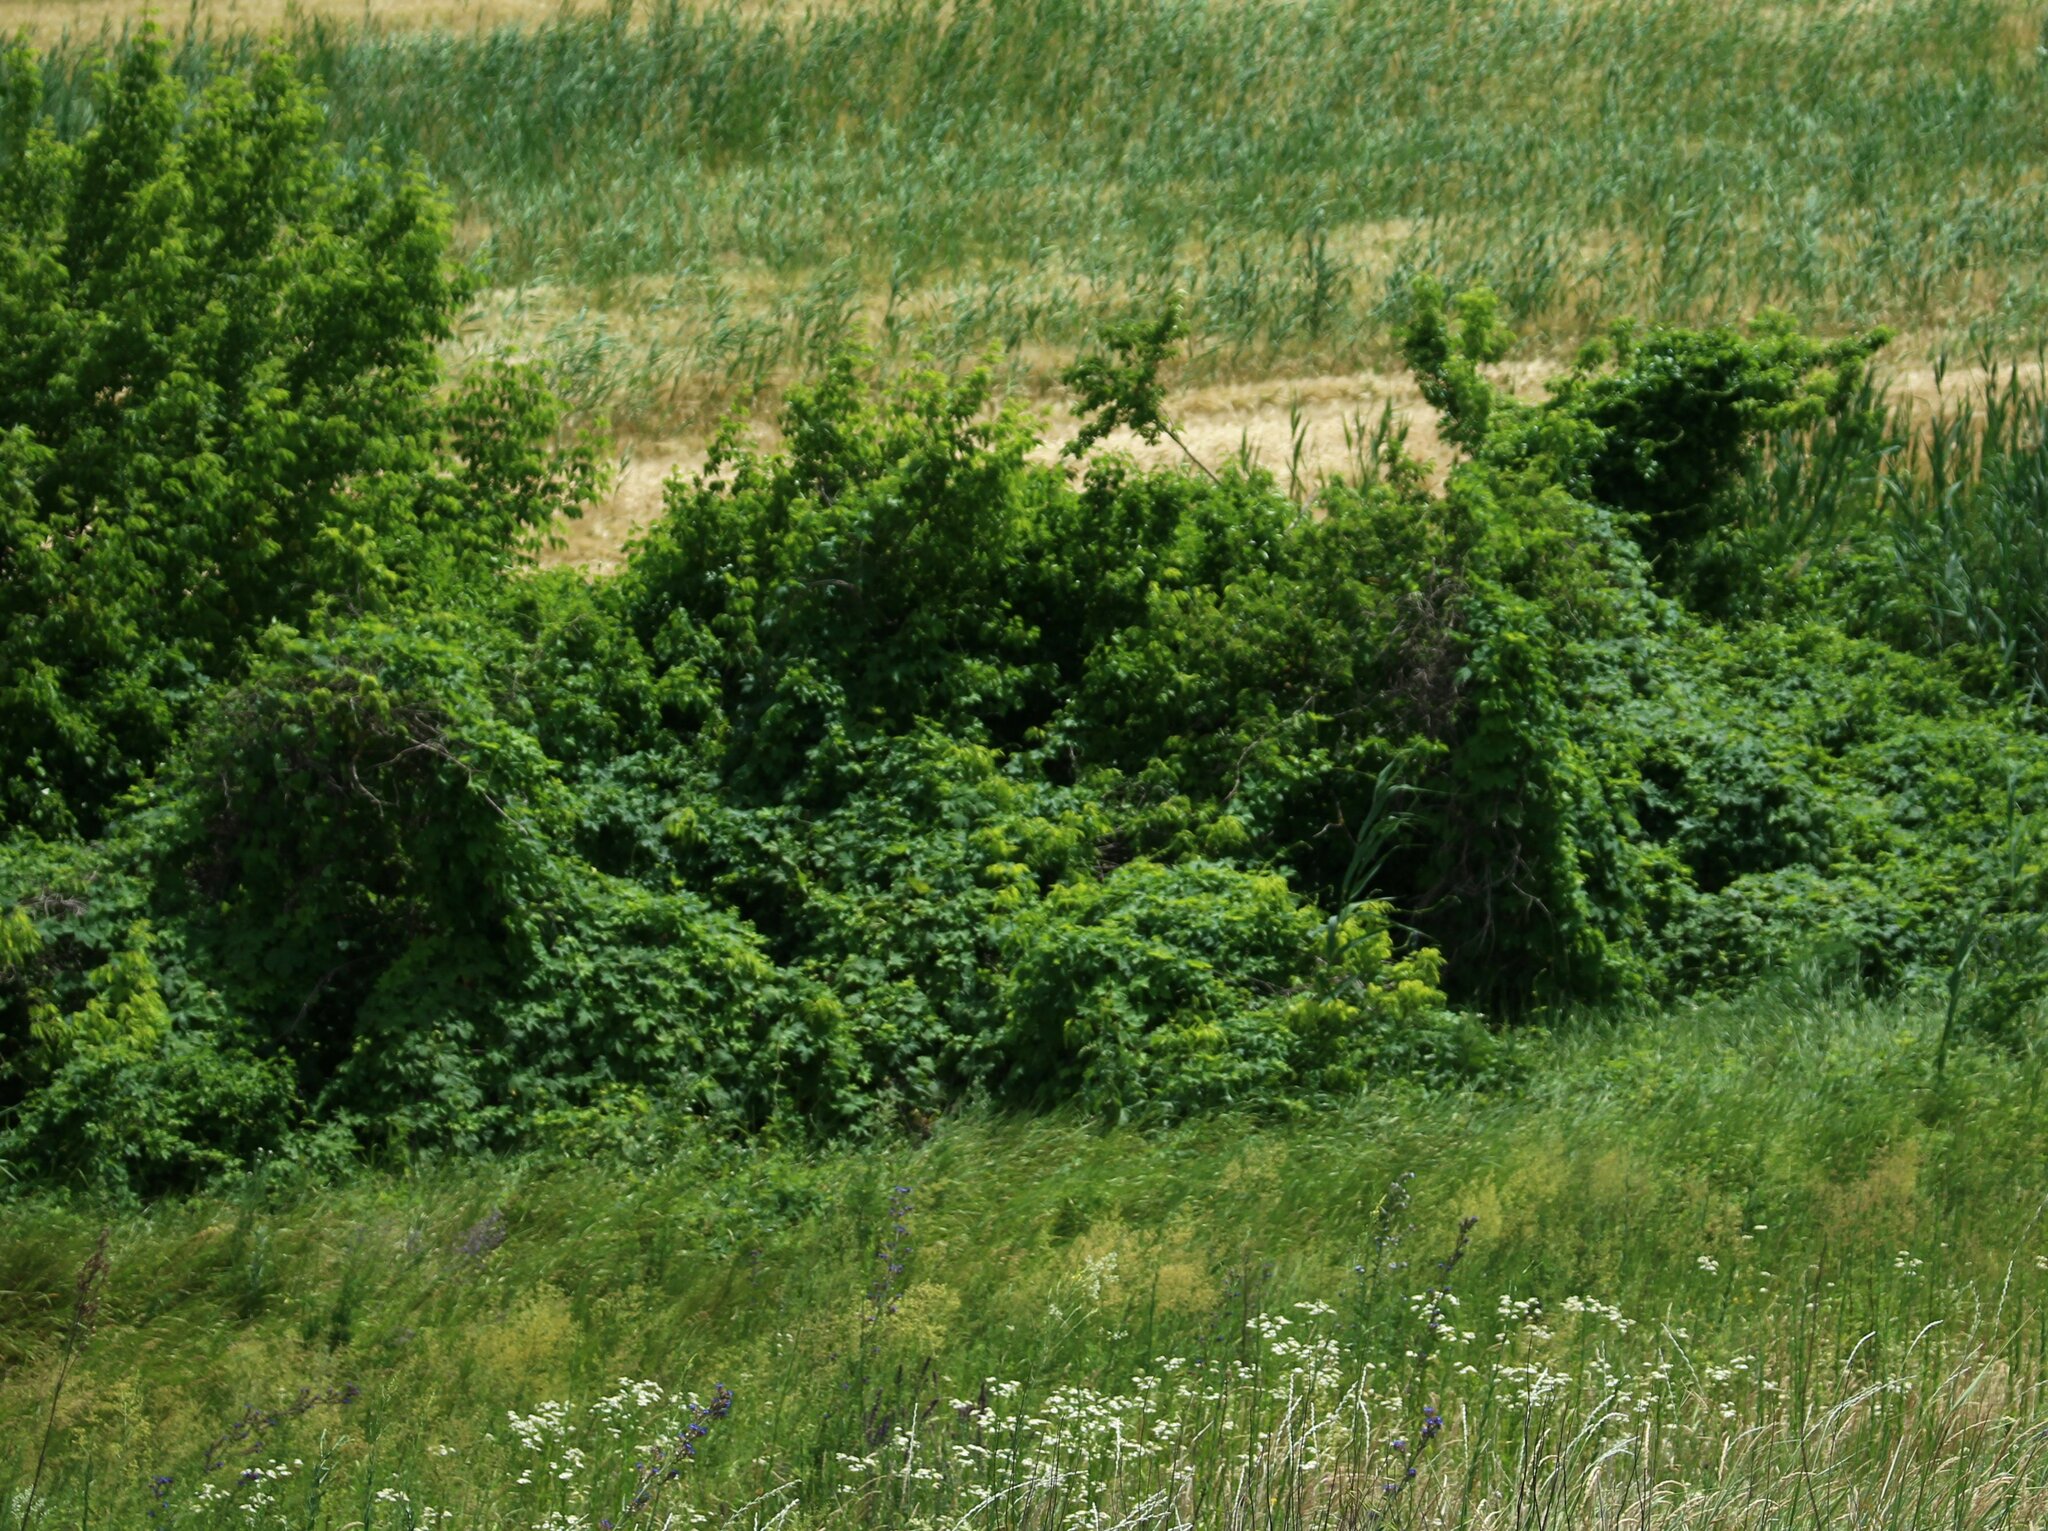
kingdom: Plantae
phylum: Tracheophyta
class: Magnoliopsida
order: Rosales
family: Cannabaceae
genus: Humulus
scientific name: Humulus lupulus
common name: Hop
